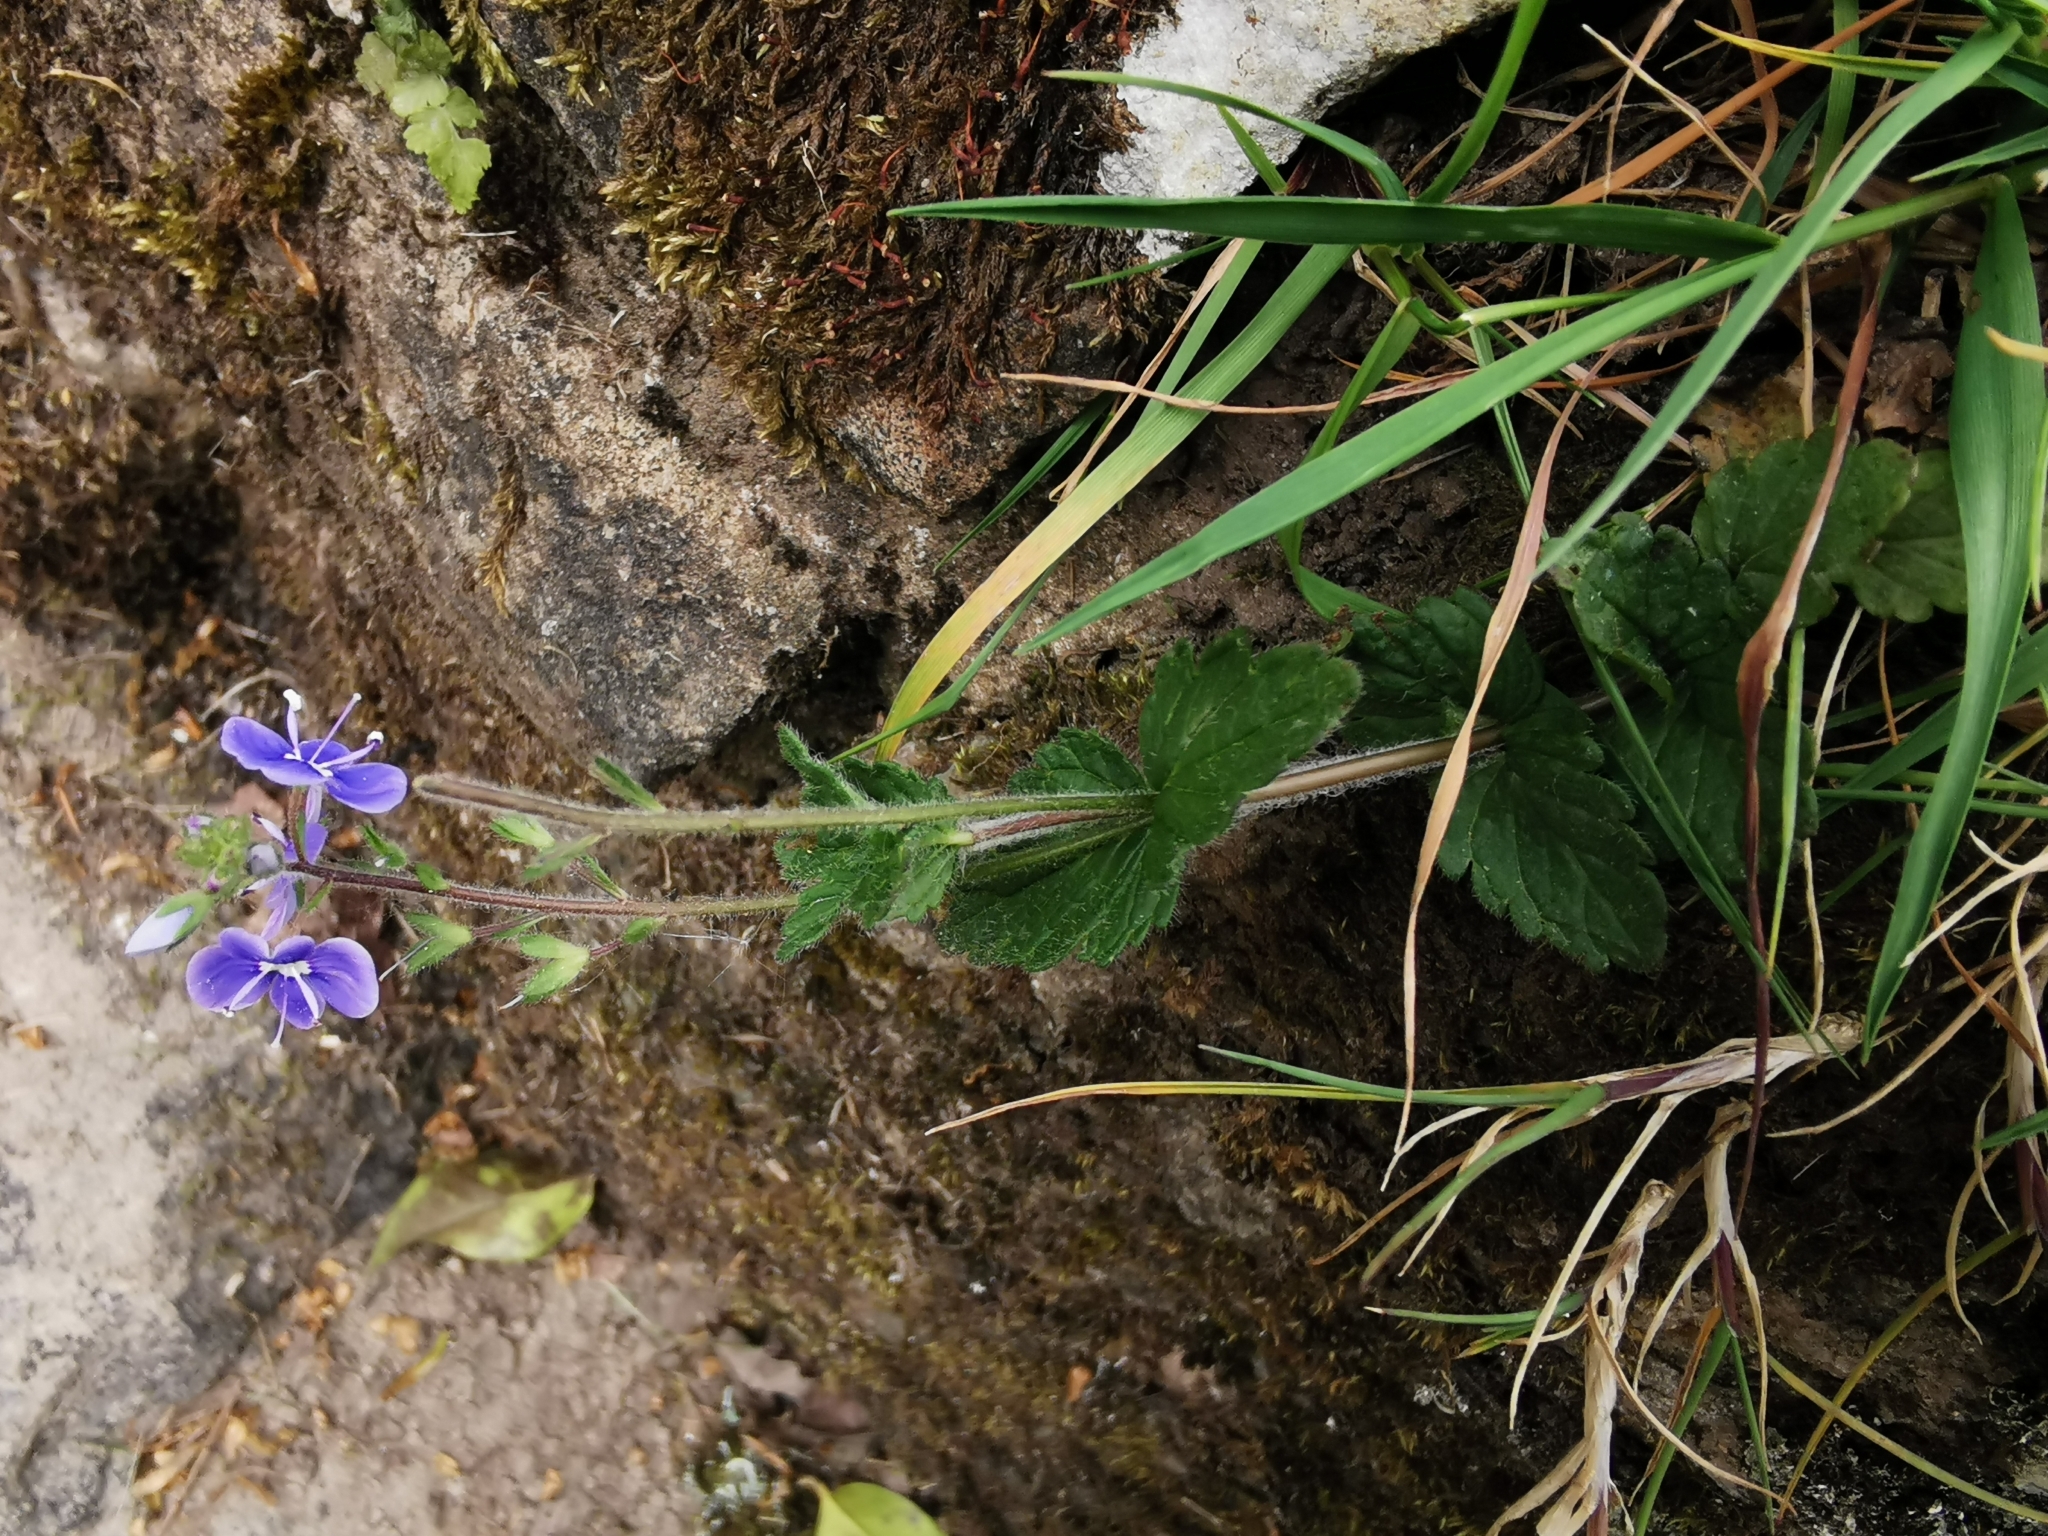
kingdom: Plantae
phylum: Tracheophyta
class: Magnoliopsida
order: Lamiales
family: Plantaginaceae
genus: Veronica
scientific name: Veronica chamaedrys
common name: Germander speedwell
